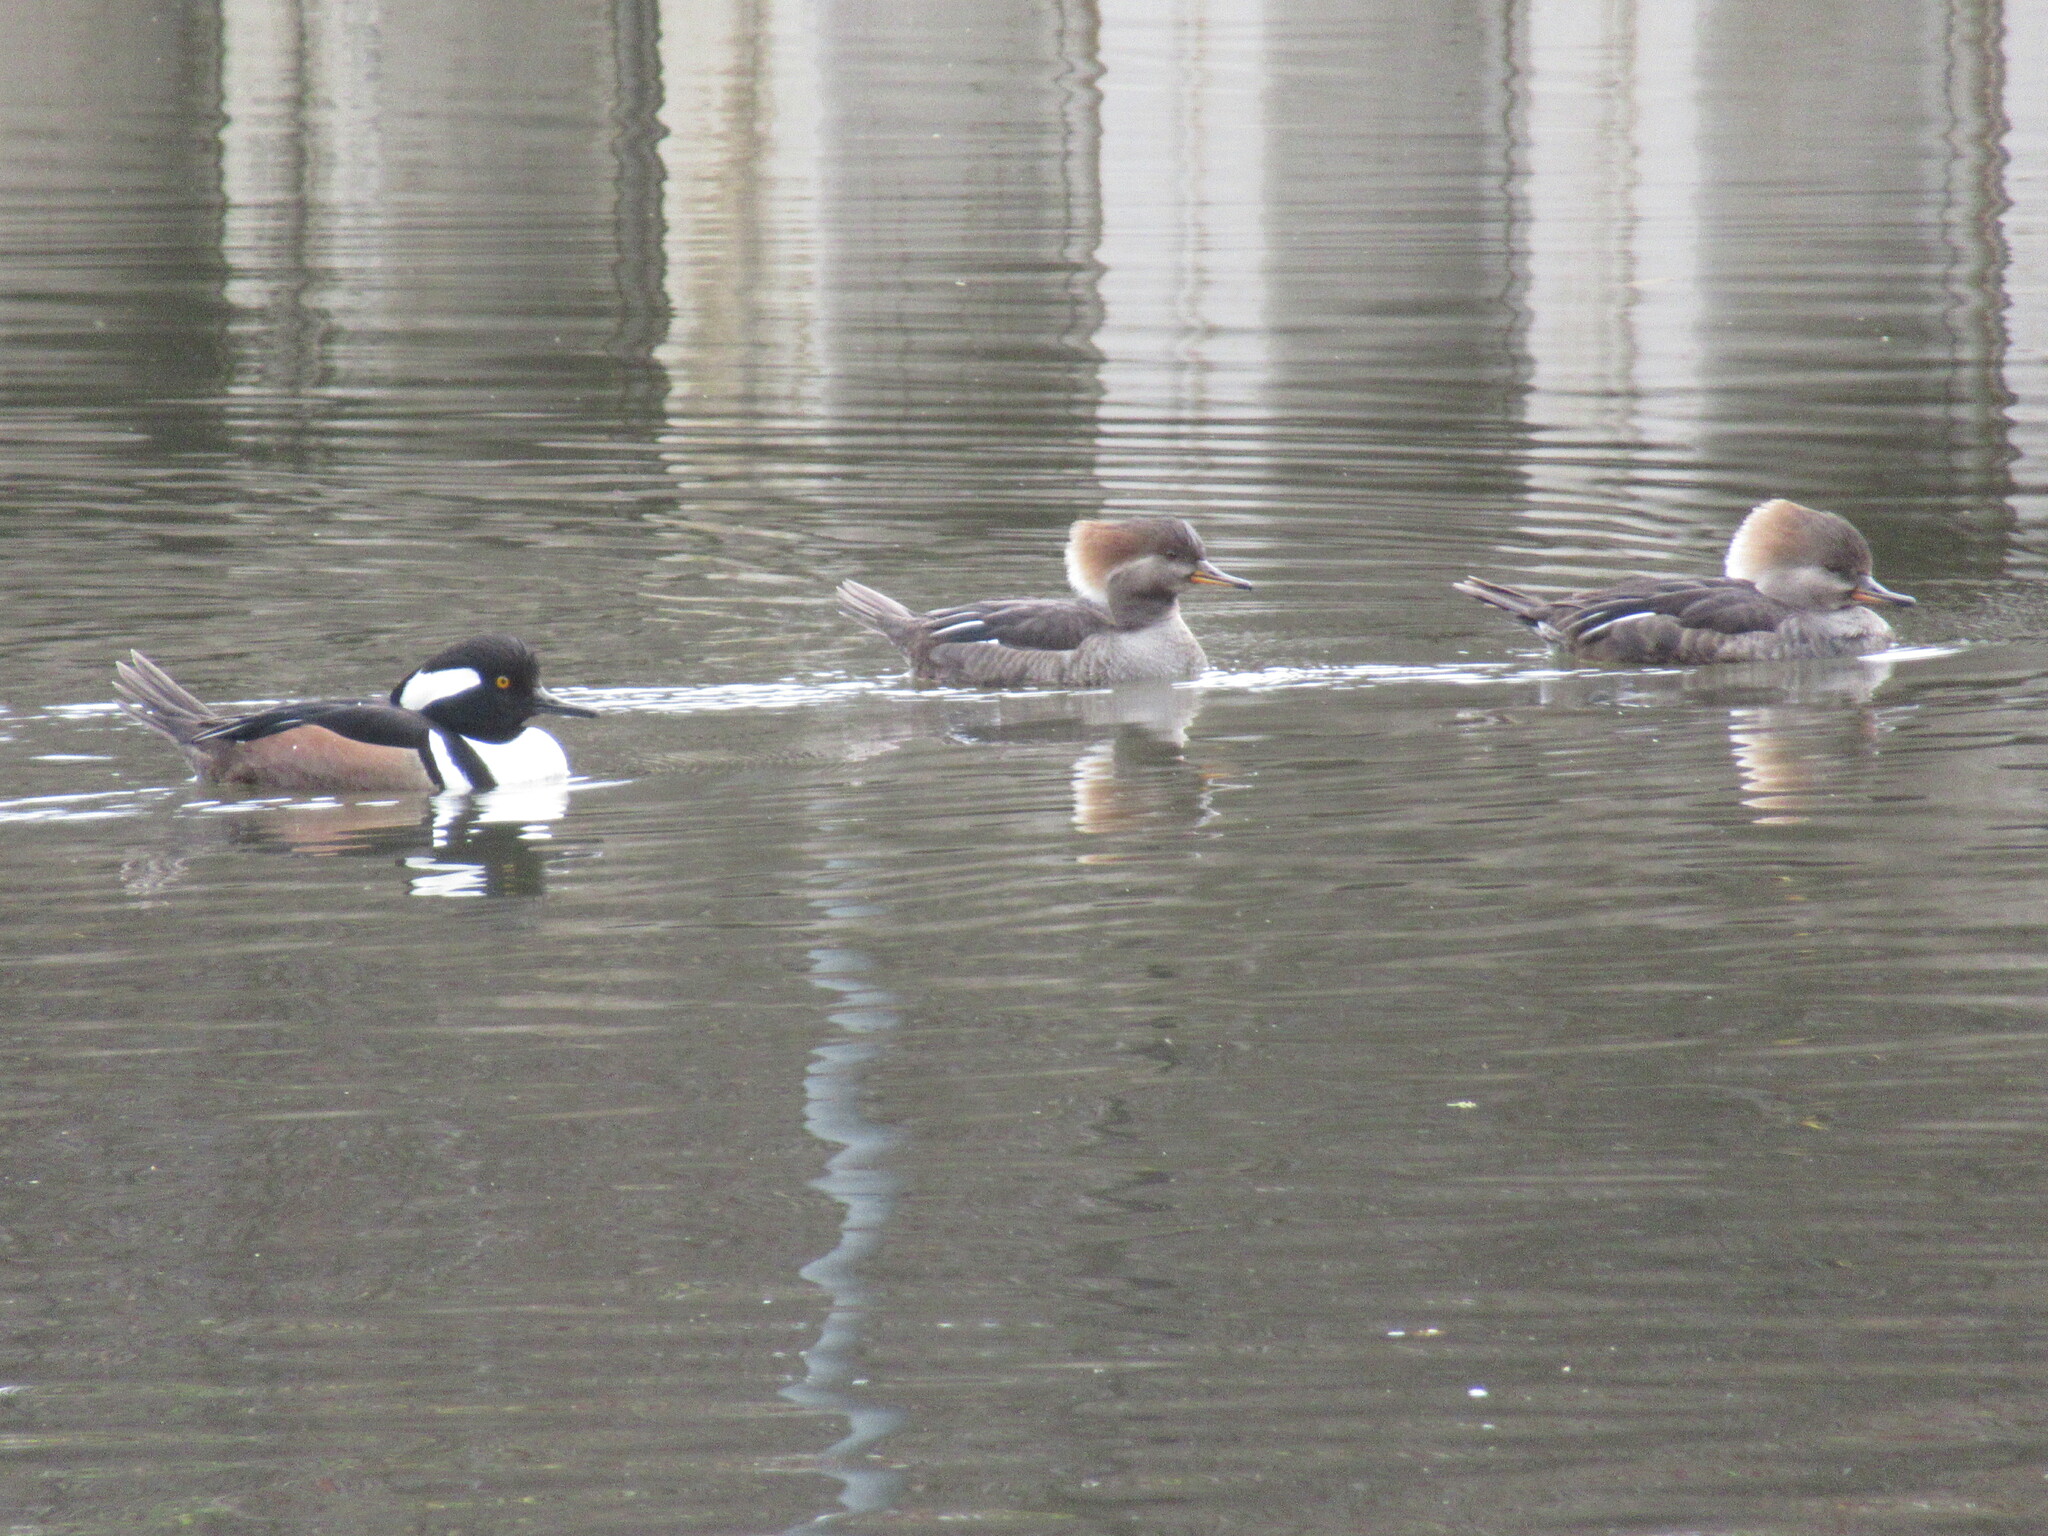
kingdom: Animalia
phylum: Chordata
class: Aves
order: Anseriformes
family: Anatidae
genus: Lophodytes
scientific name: Lophodytes cucullatus
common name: Hooded merganser
